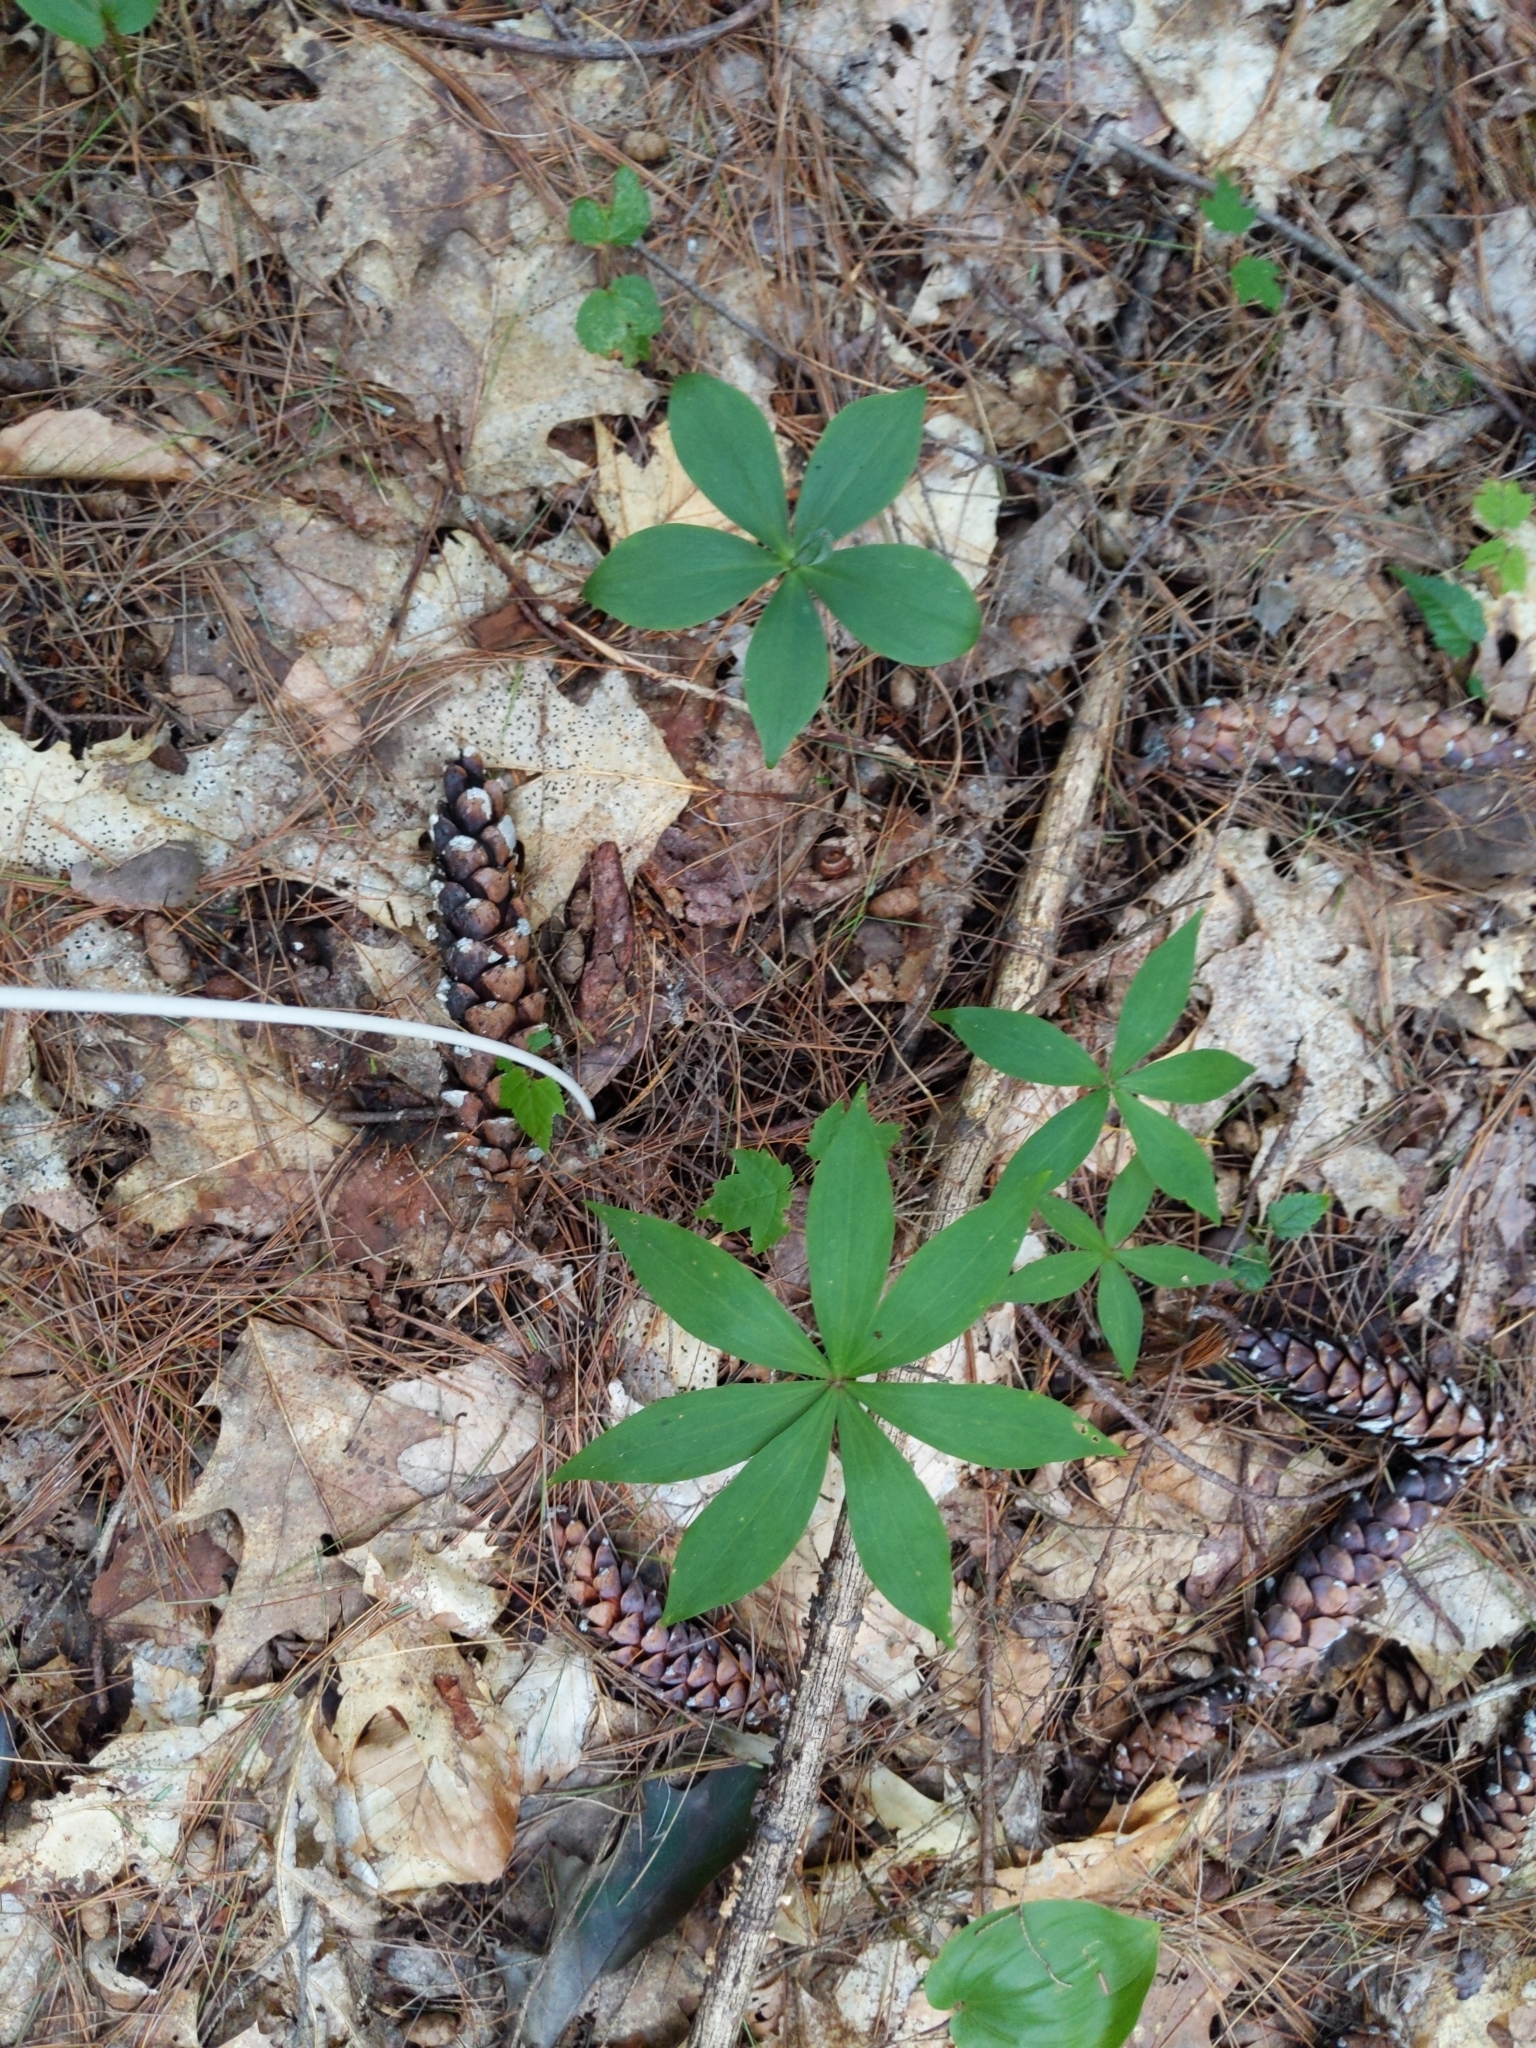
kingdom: Plantae
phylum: Tracheophyta
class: Liliopsida
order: Asparagales
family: Orchidaceae
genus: Isotria
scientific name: Isotria medeoloides
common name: Small whorled pogonia
